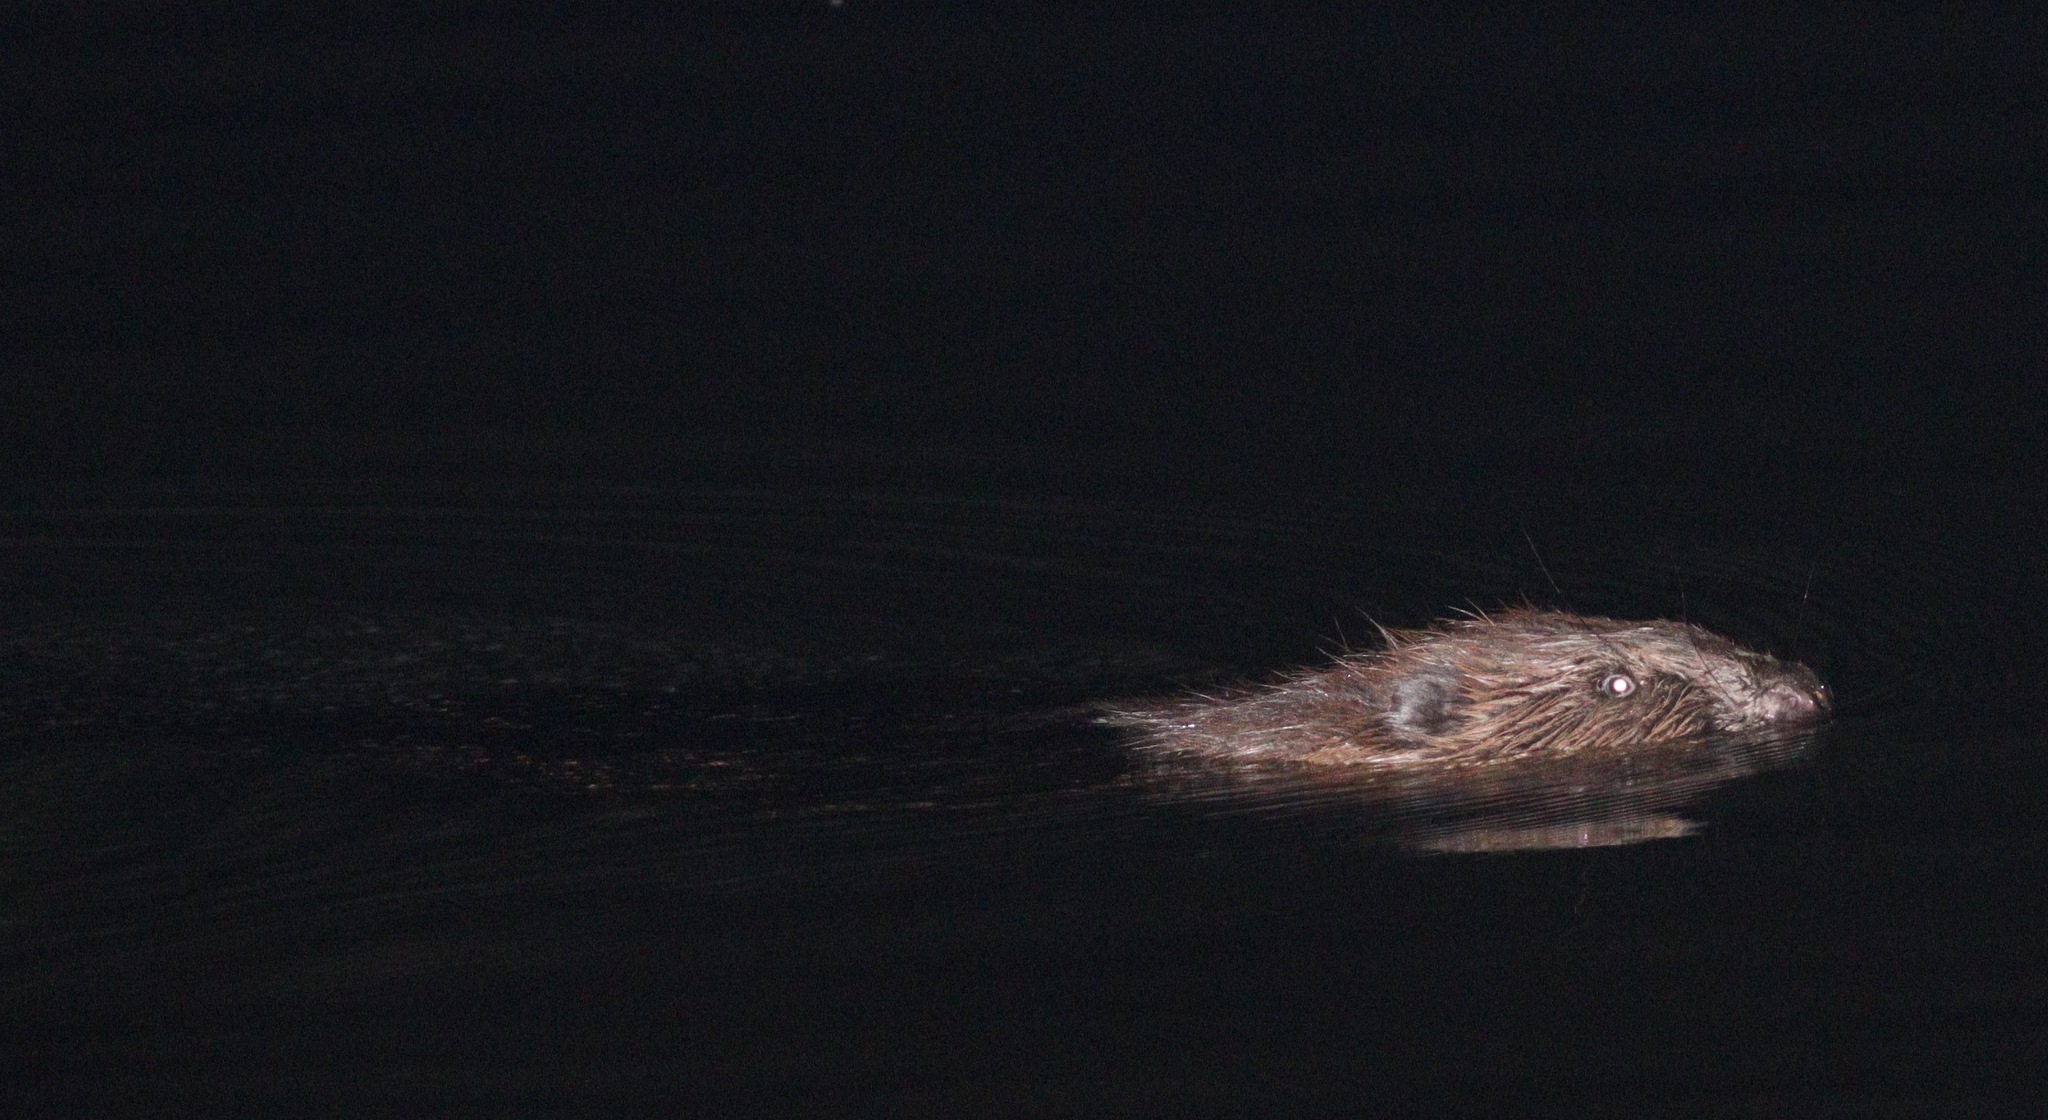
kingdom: Animalia
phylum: Chordata
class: Mammalia
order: Rodentia
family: Castoridae
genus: Castor
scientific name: Castor fiber
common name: Eurasian beaver
